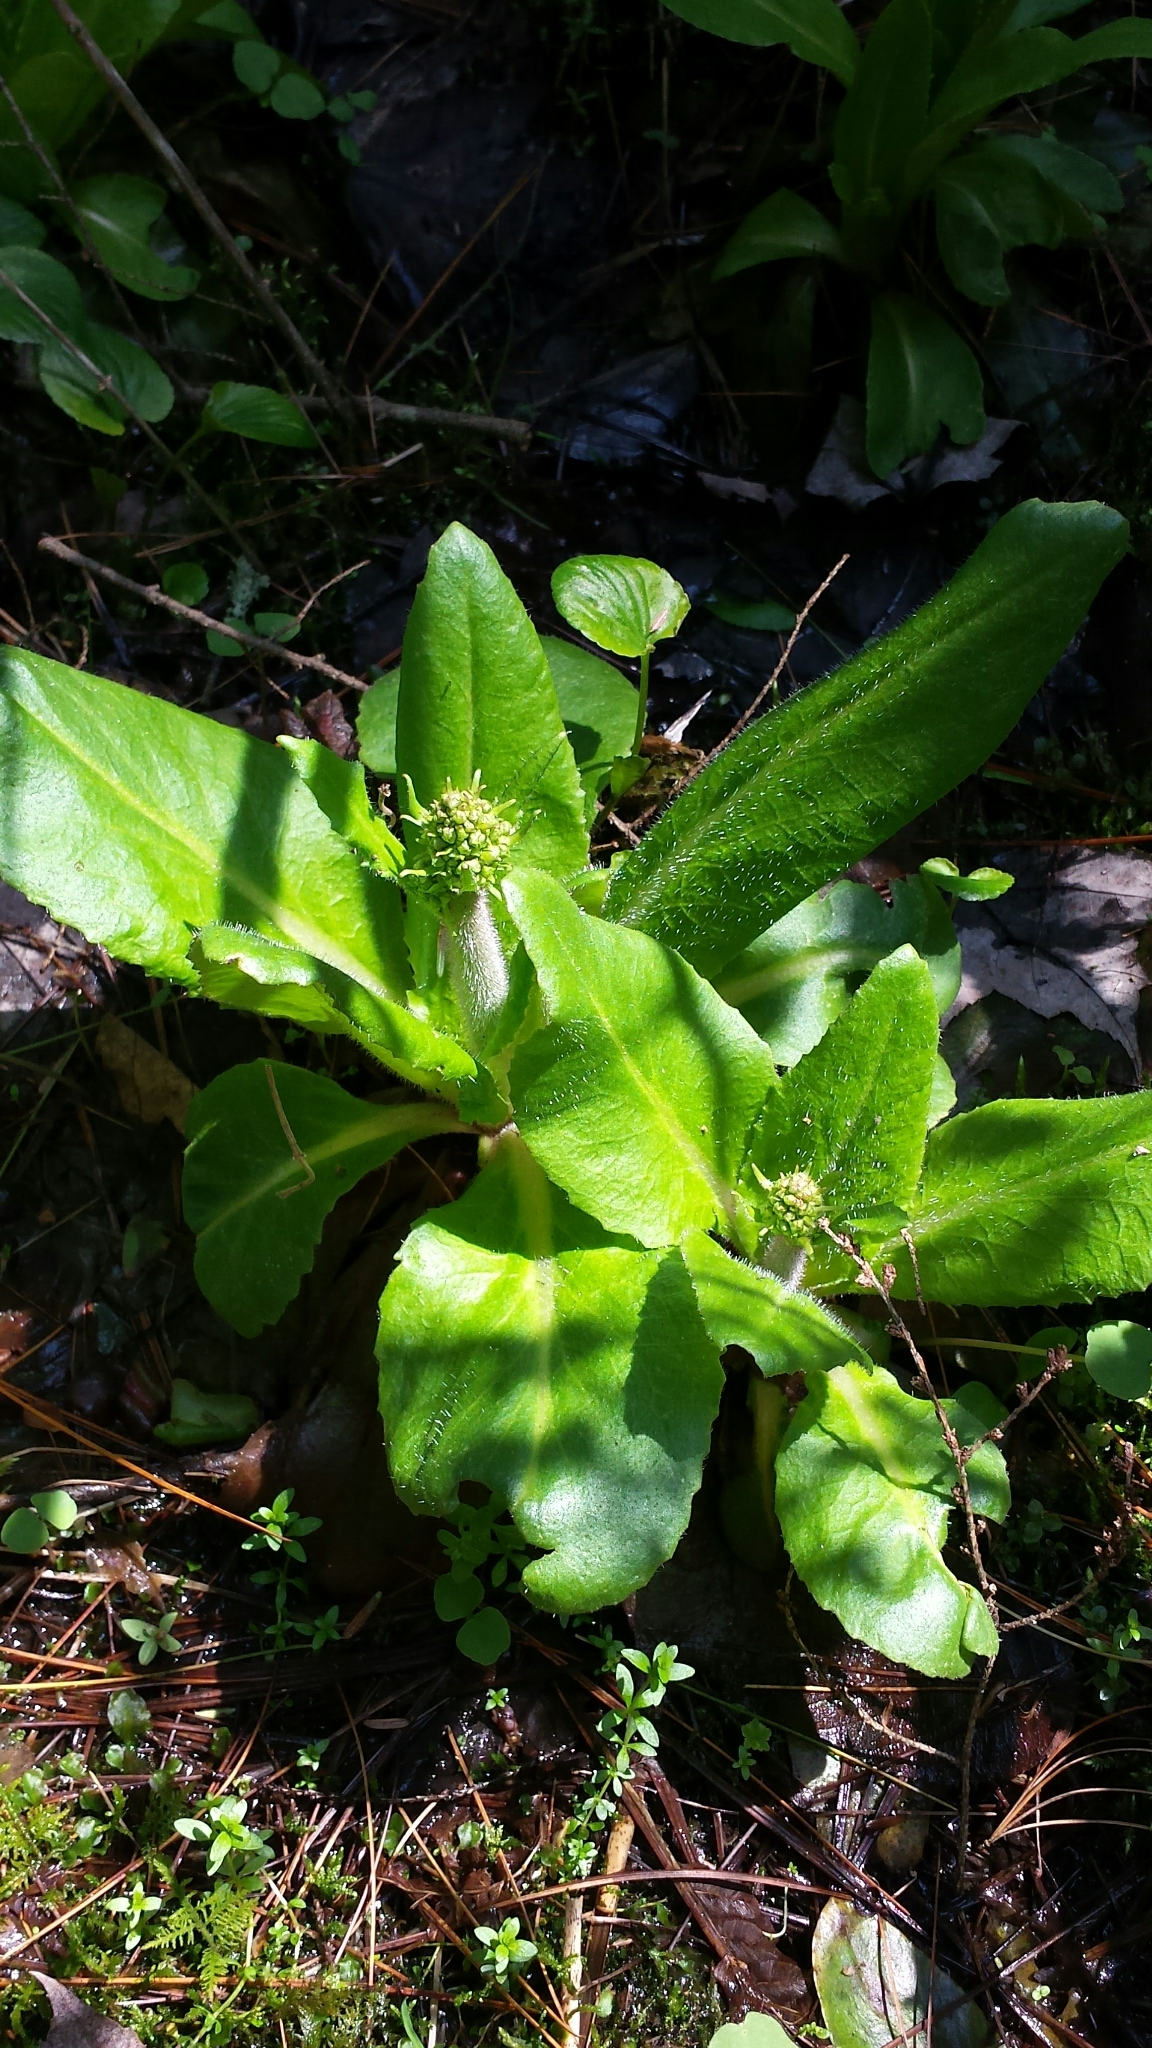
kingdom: Plantae
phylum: Tracheophyta
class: Magnoliopsida
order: Saxifragales
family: Saxifragaceae
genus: Micranthes
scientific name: Micranthes pensylvanica
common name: Marsh saxifrage
